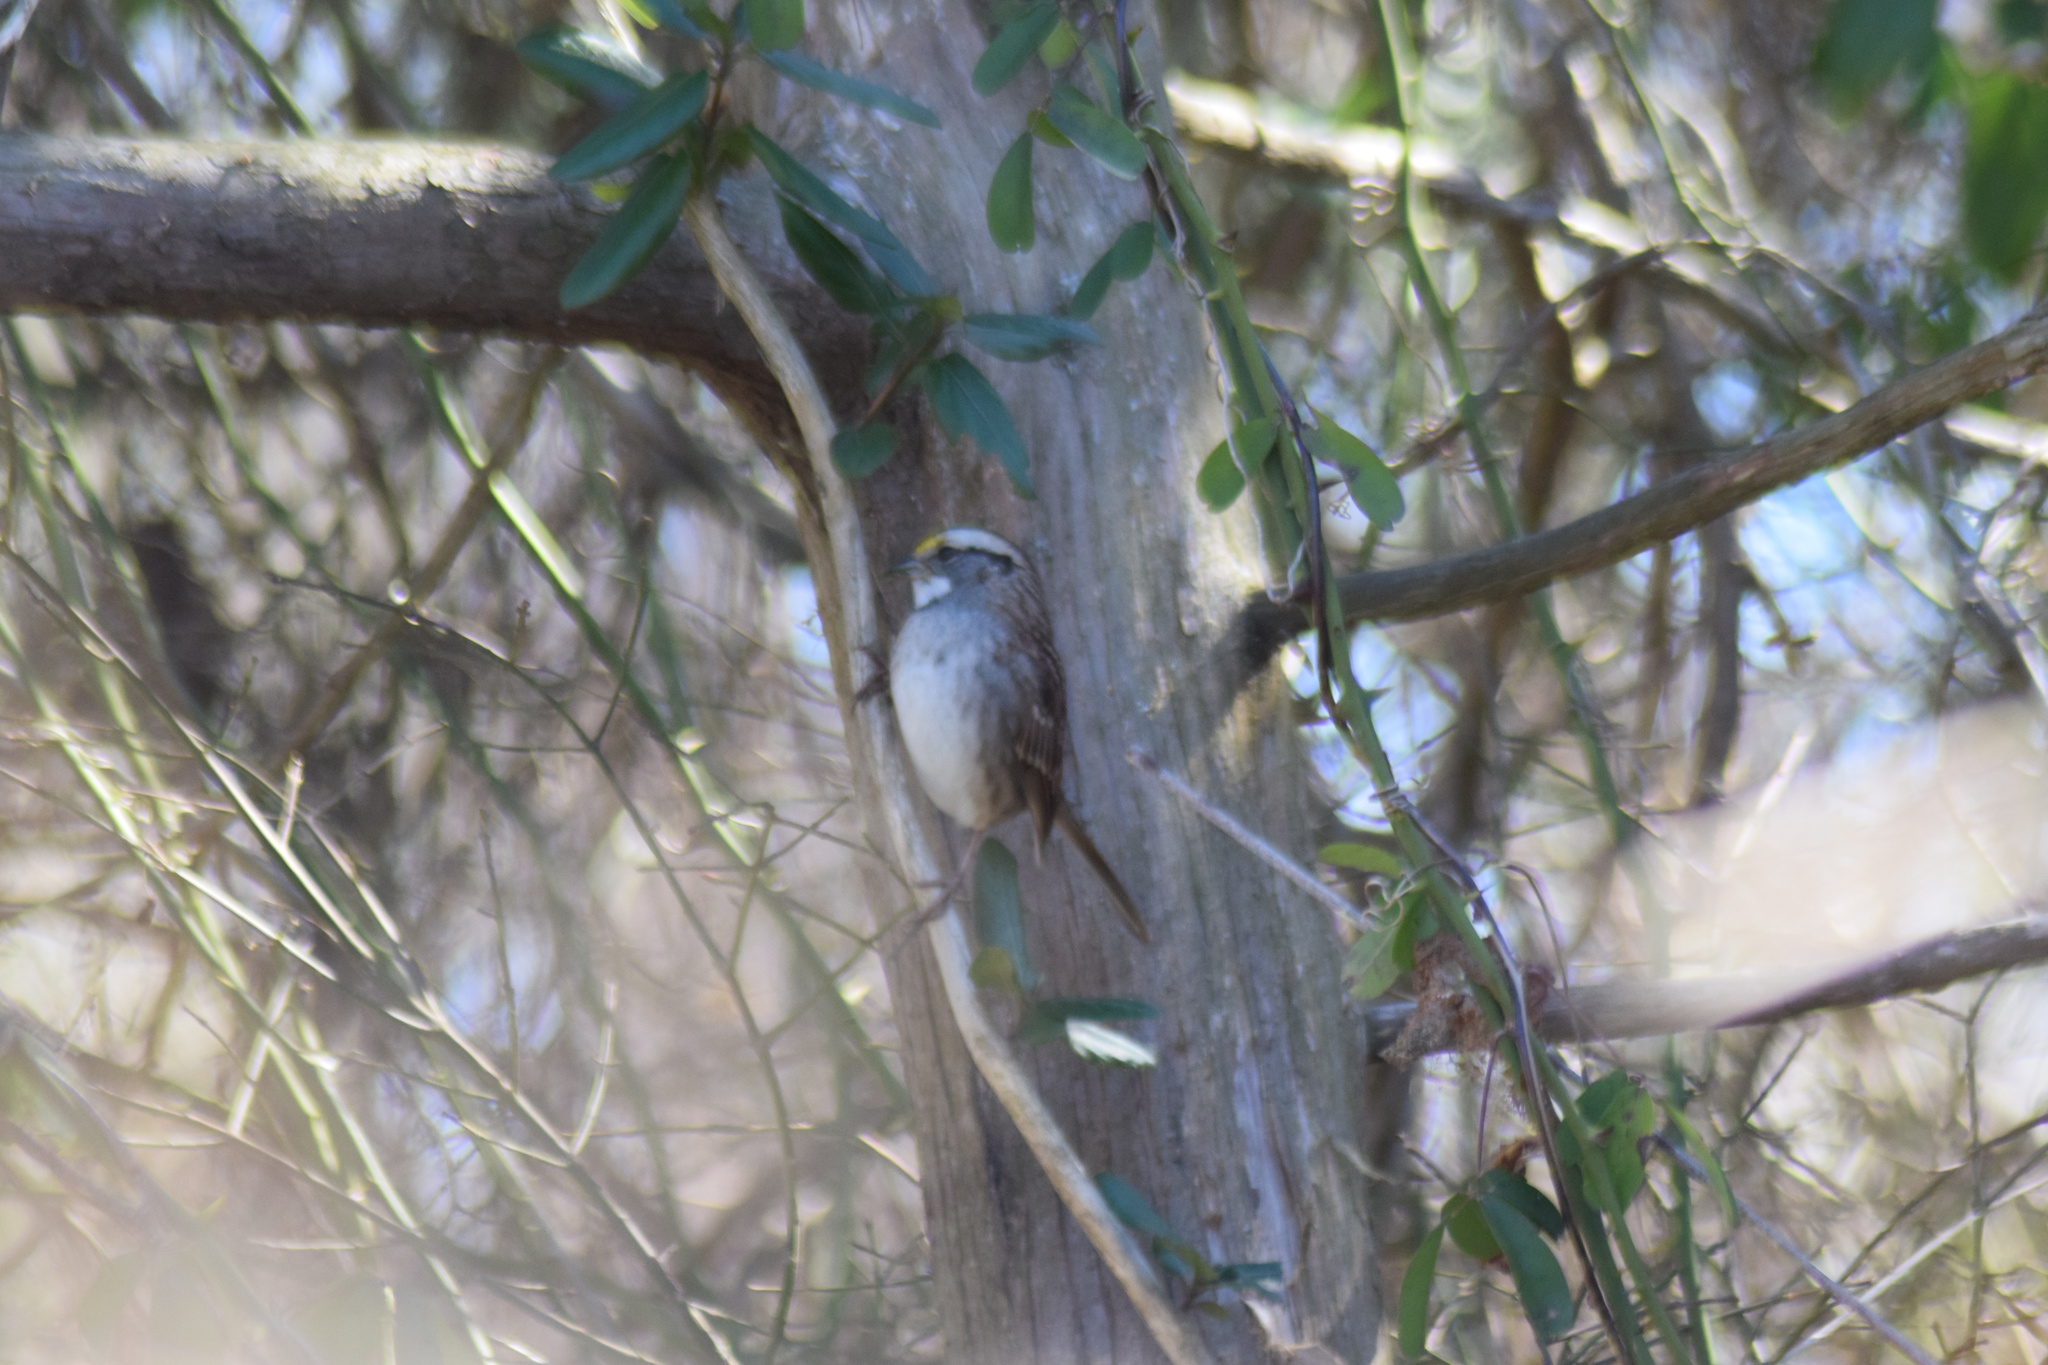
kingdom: Animalia
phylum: Chordata
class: Aves
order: Passeriformes
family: Passerellidae
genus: Zonotrichia
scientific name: Zonotrichia albicollis
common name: White-throated sparrow
